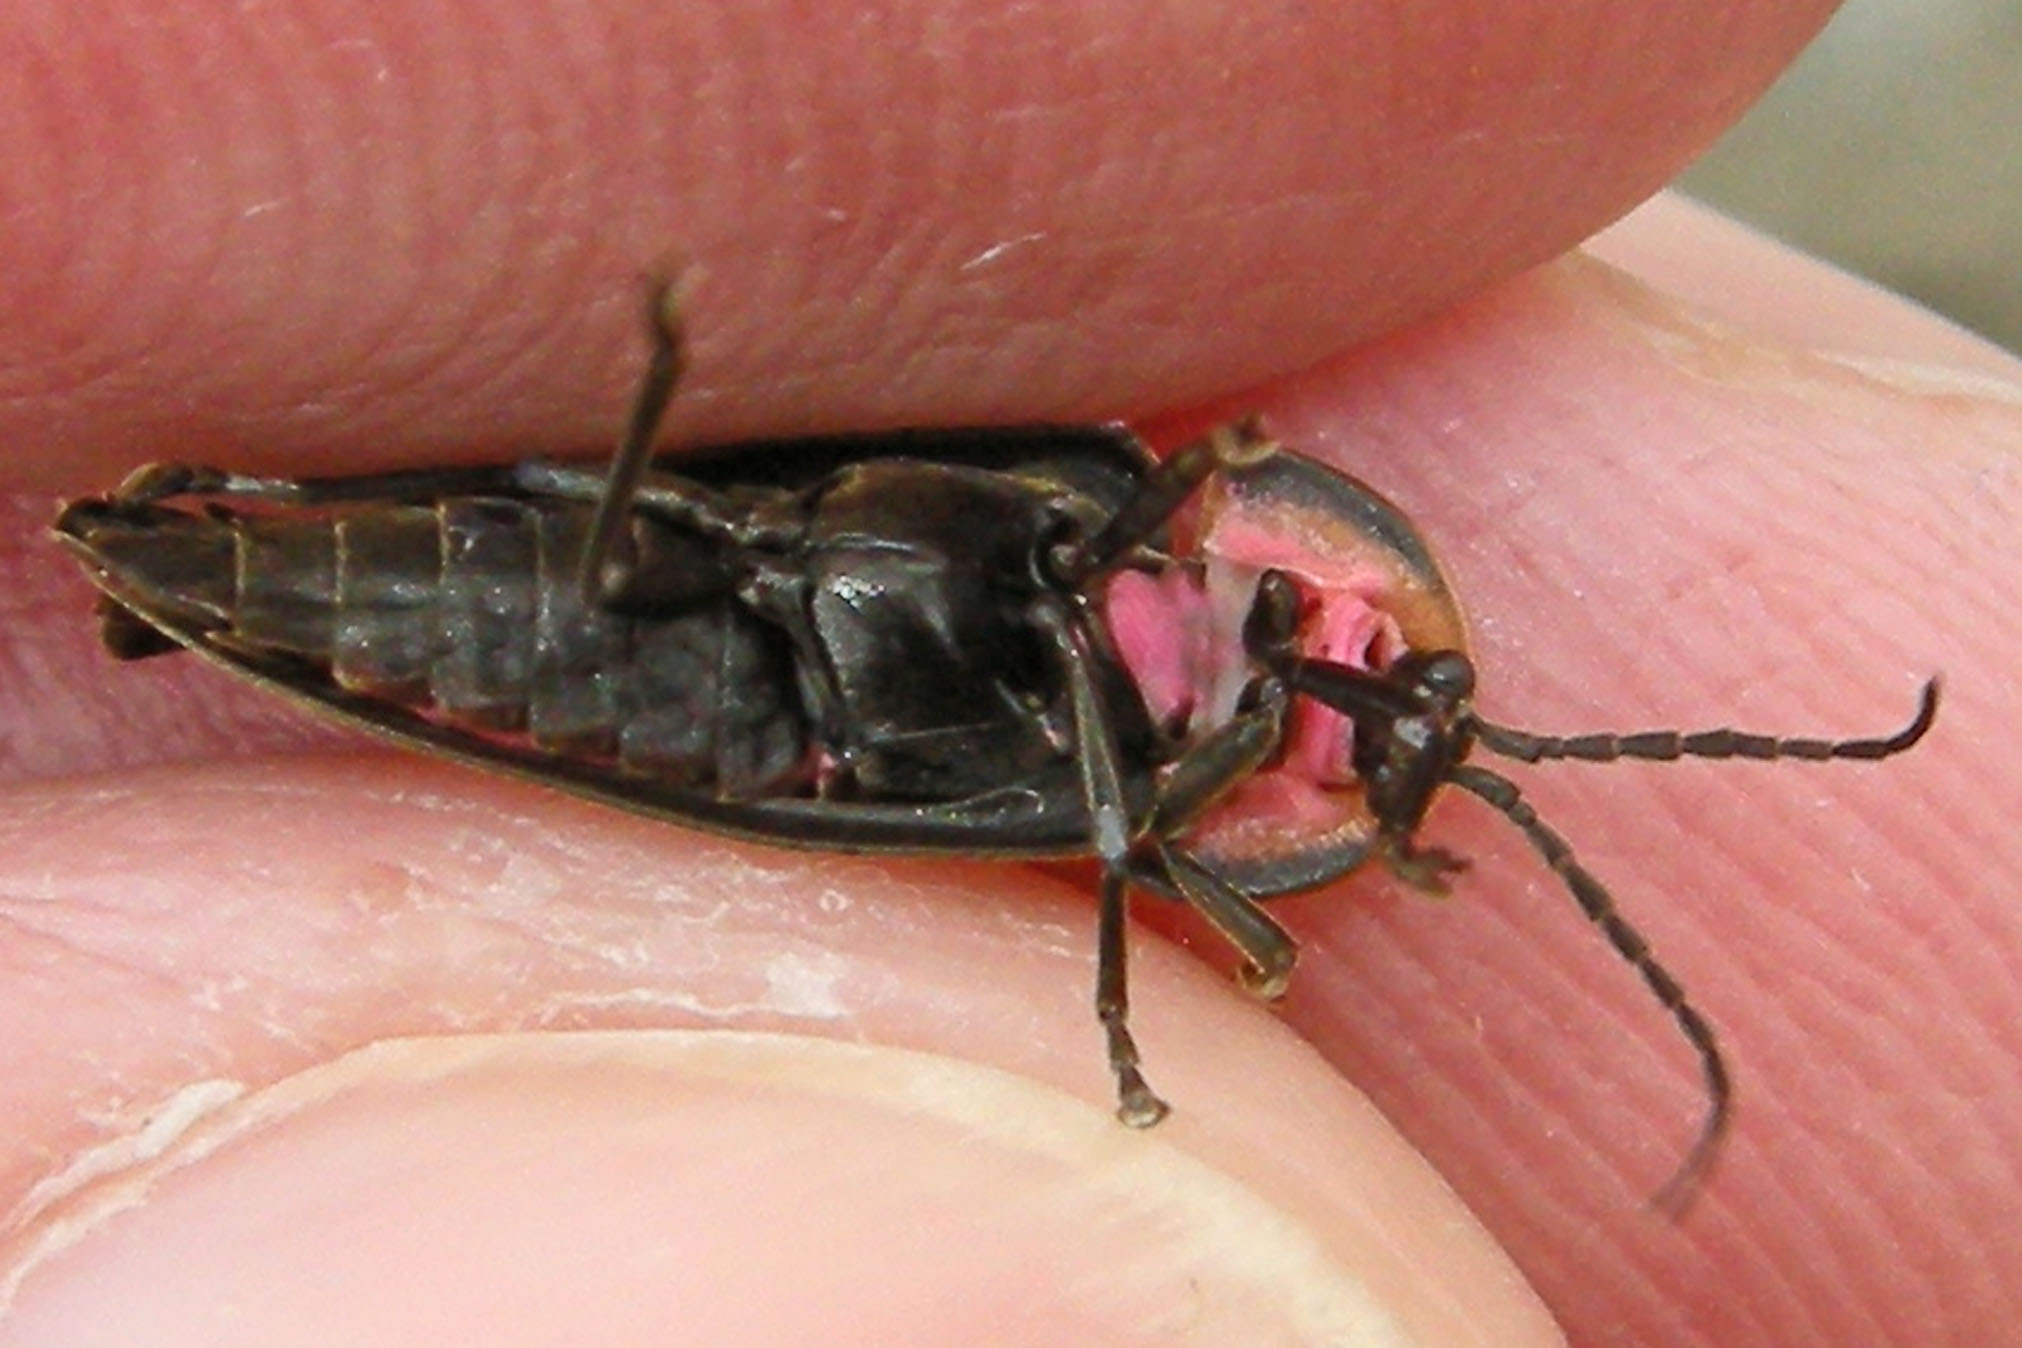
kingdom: Animalia
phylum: Arthropoda
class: Insecta
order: Coleoptera
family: Lampyridae
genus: Photinus
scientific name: Photinus corrusca
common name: Winter firefly
